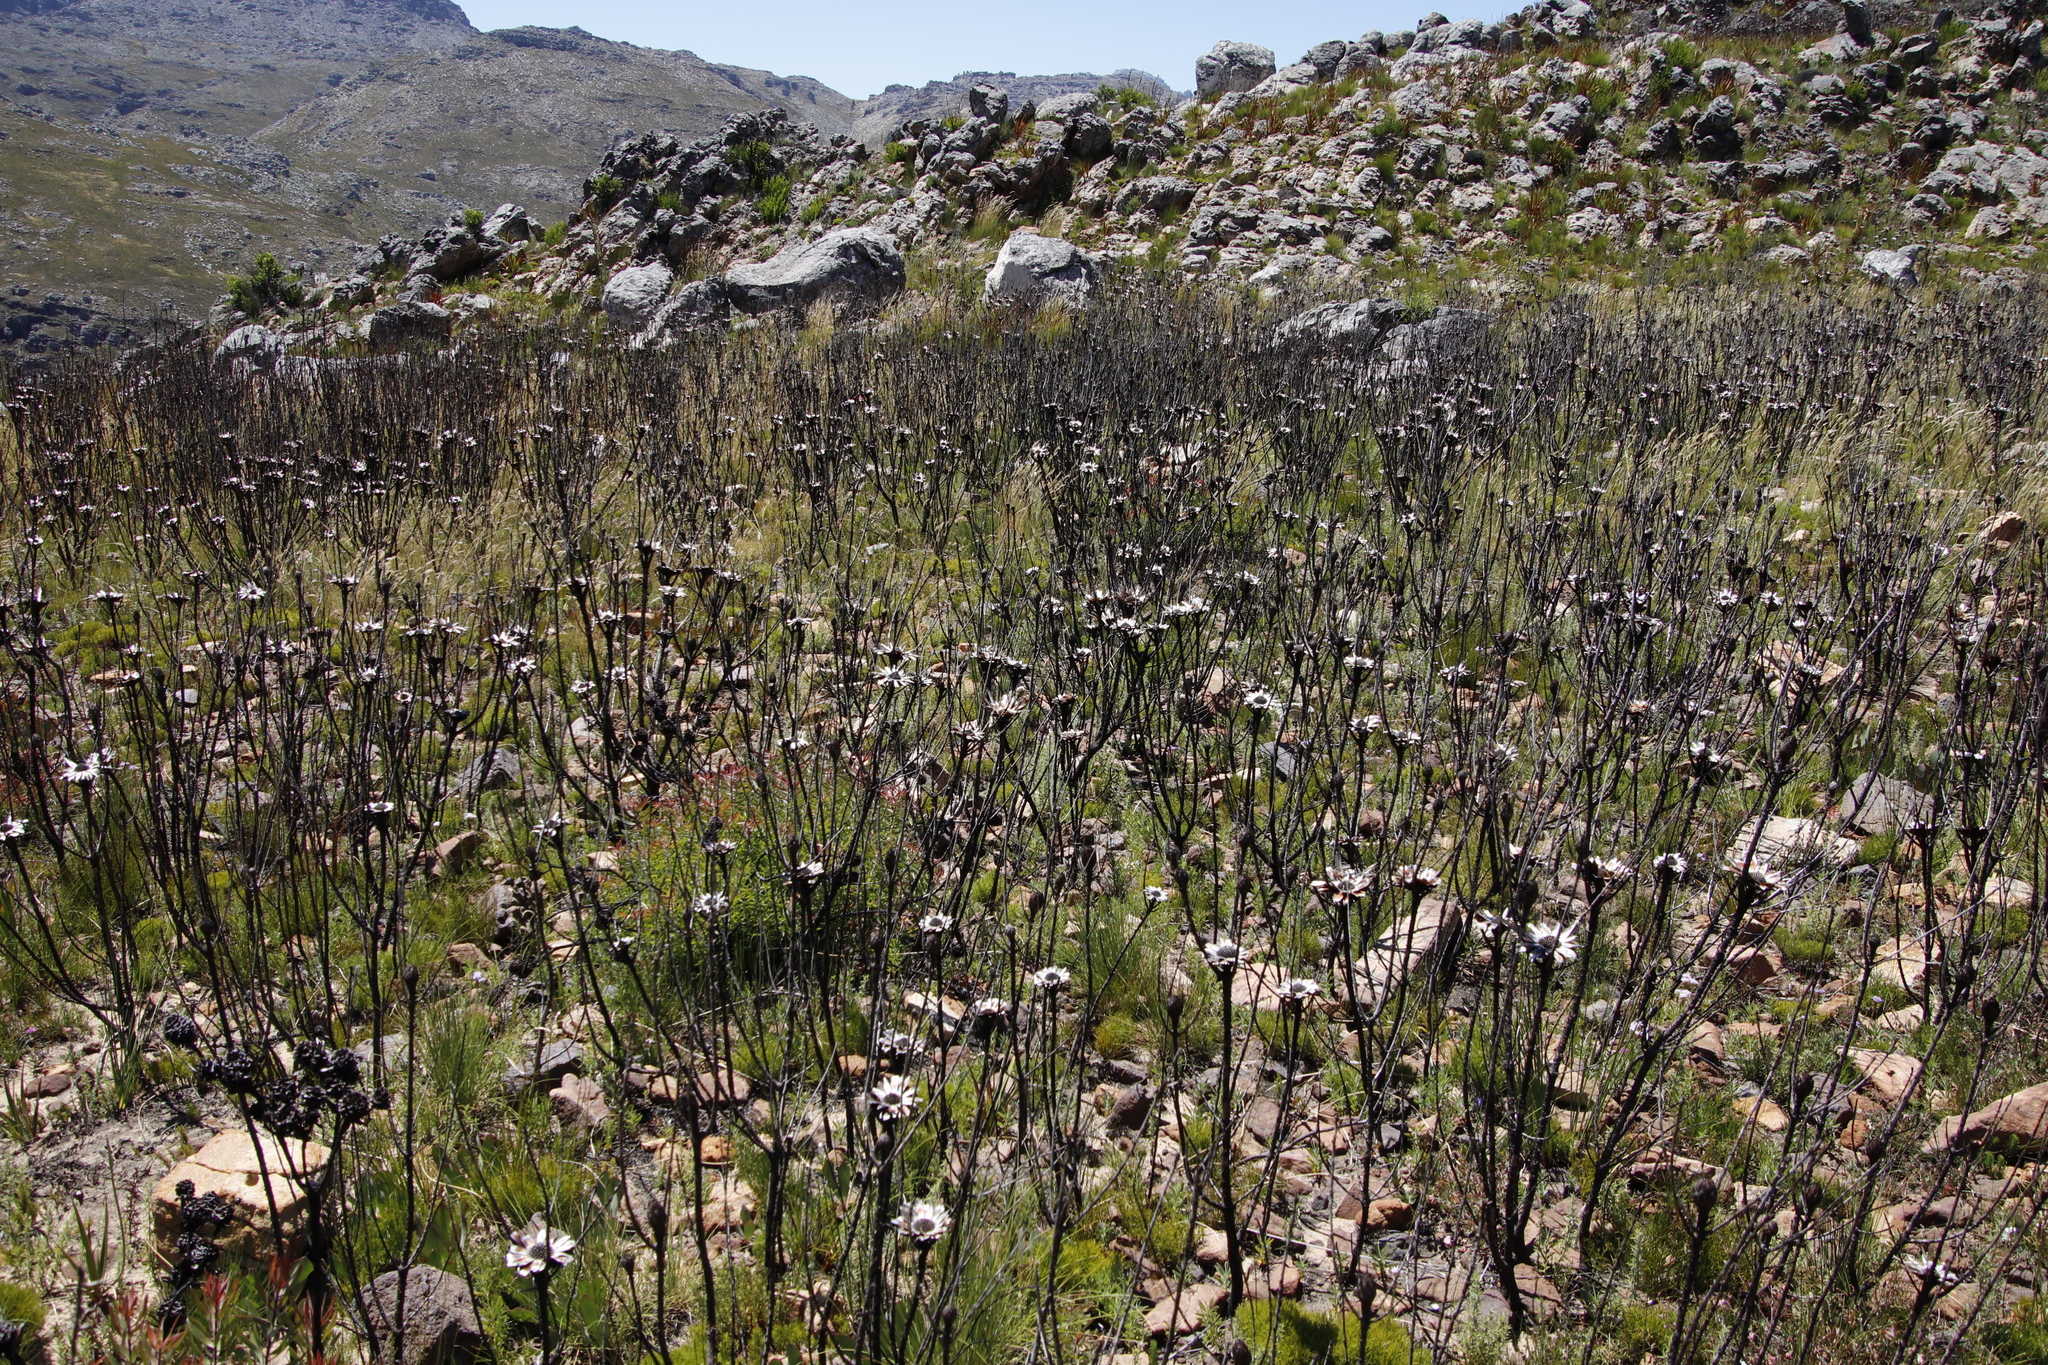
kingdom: Plantae
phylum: Tracheophyta
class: Magnoliopsida
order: Proteales
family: Proteaceae
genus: Protea
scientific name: Protea repens
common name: Sugarbush
